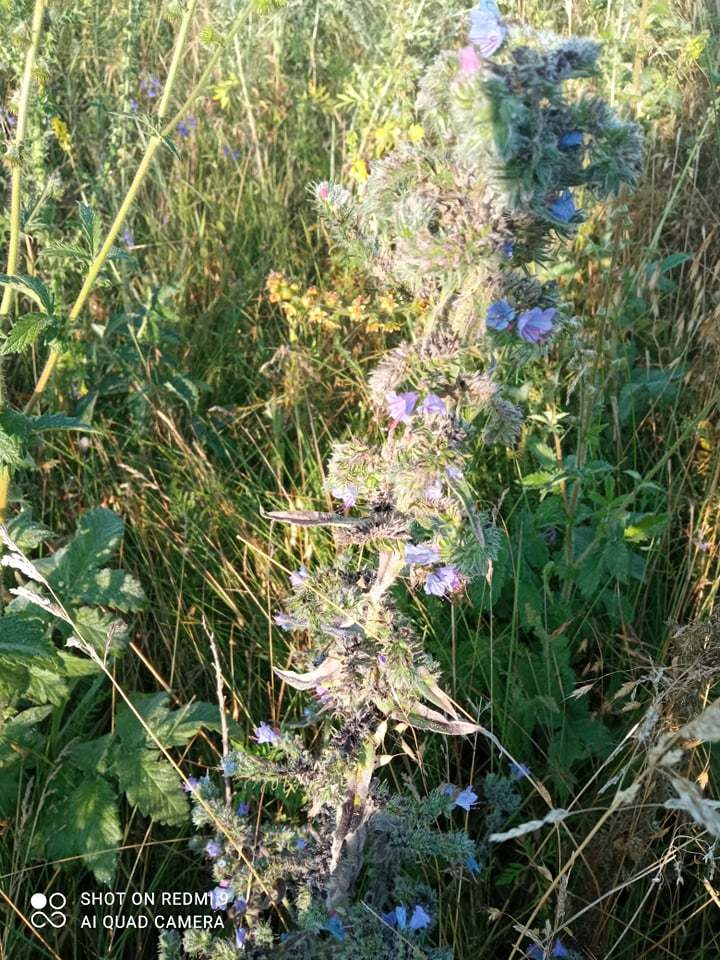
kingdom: Plantae
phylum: Tracheophyta
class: Magnoliopsida
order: Boraginales
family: Boraginaceae
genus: Echium
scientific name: Echium vulgare
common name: Common viper's bugloss
